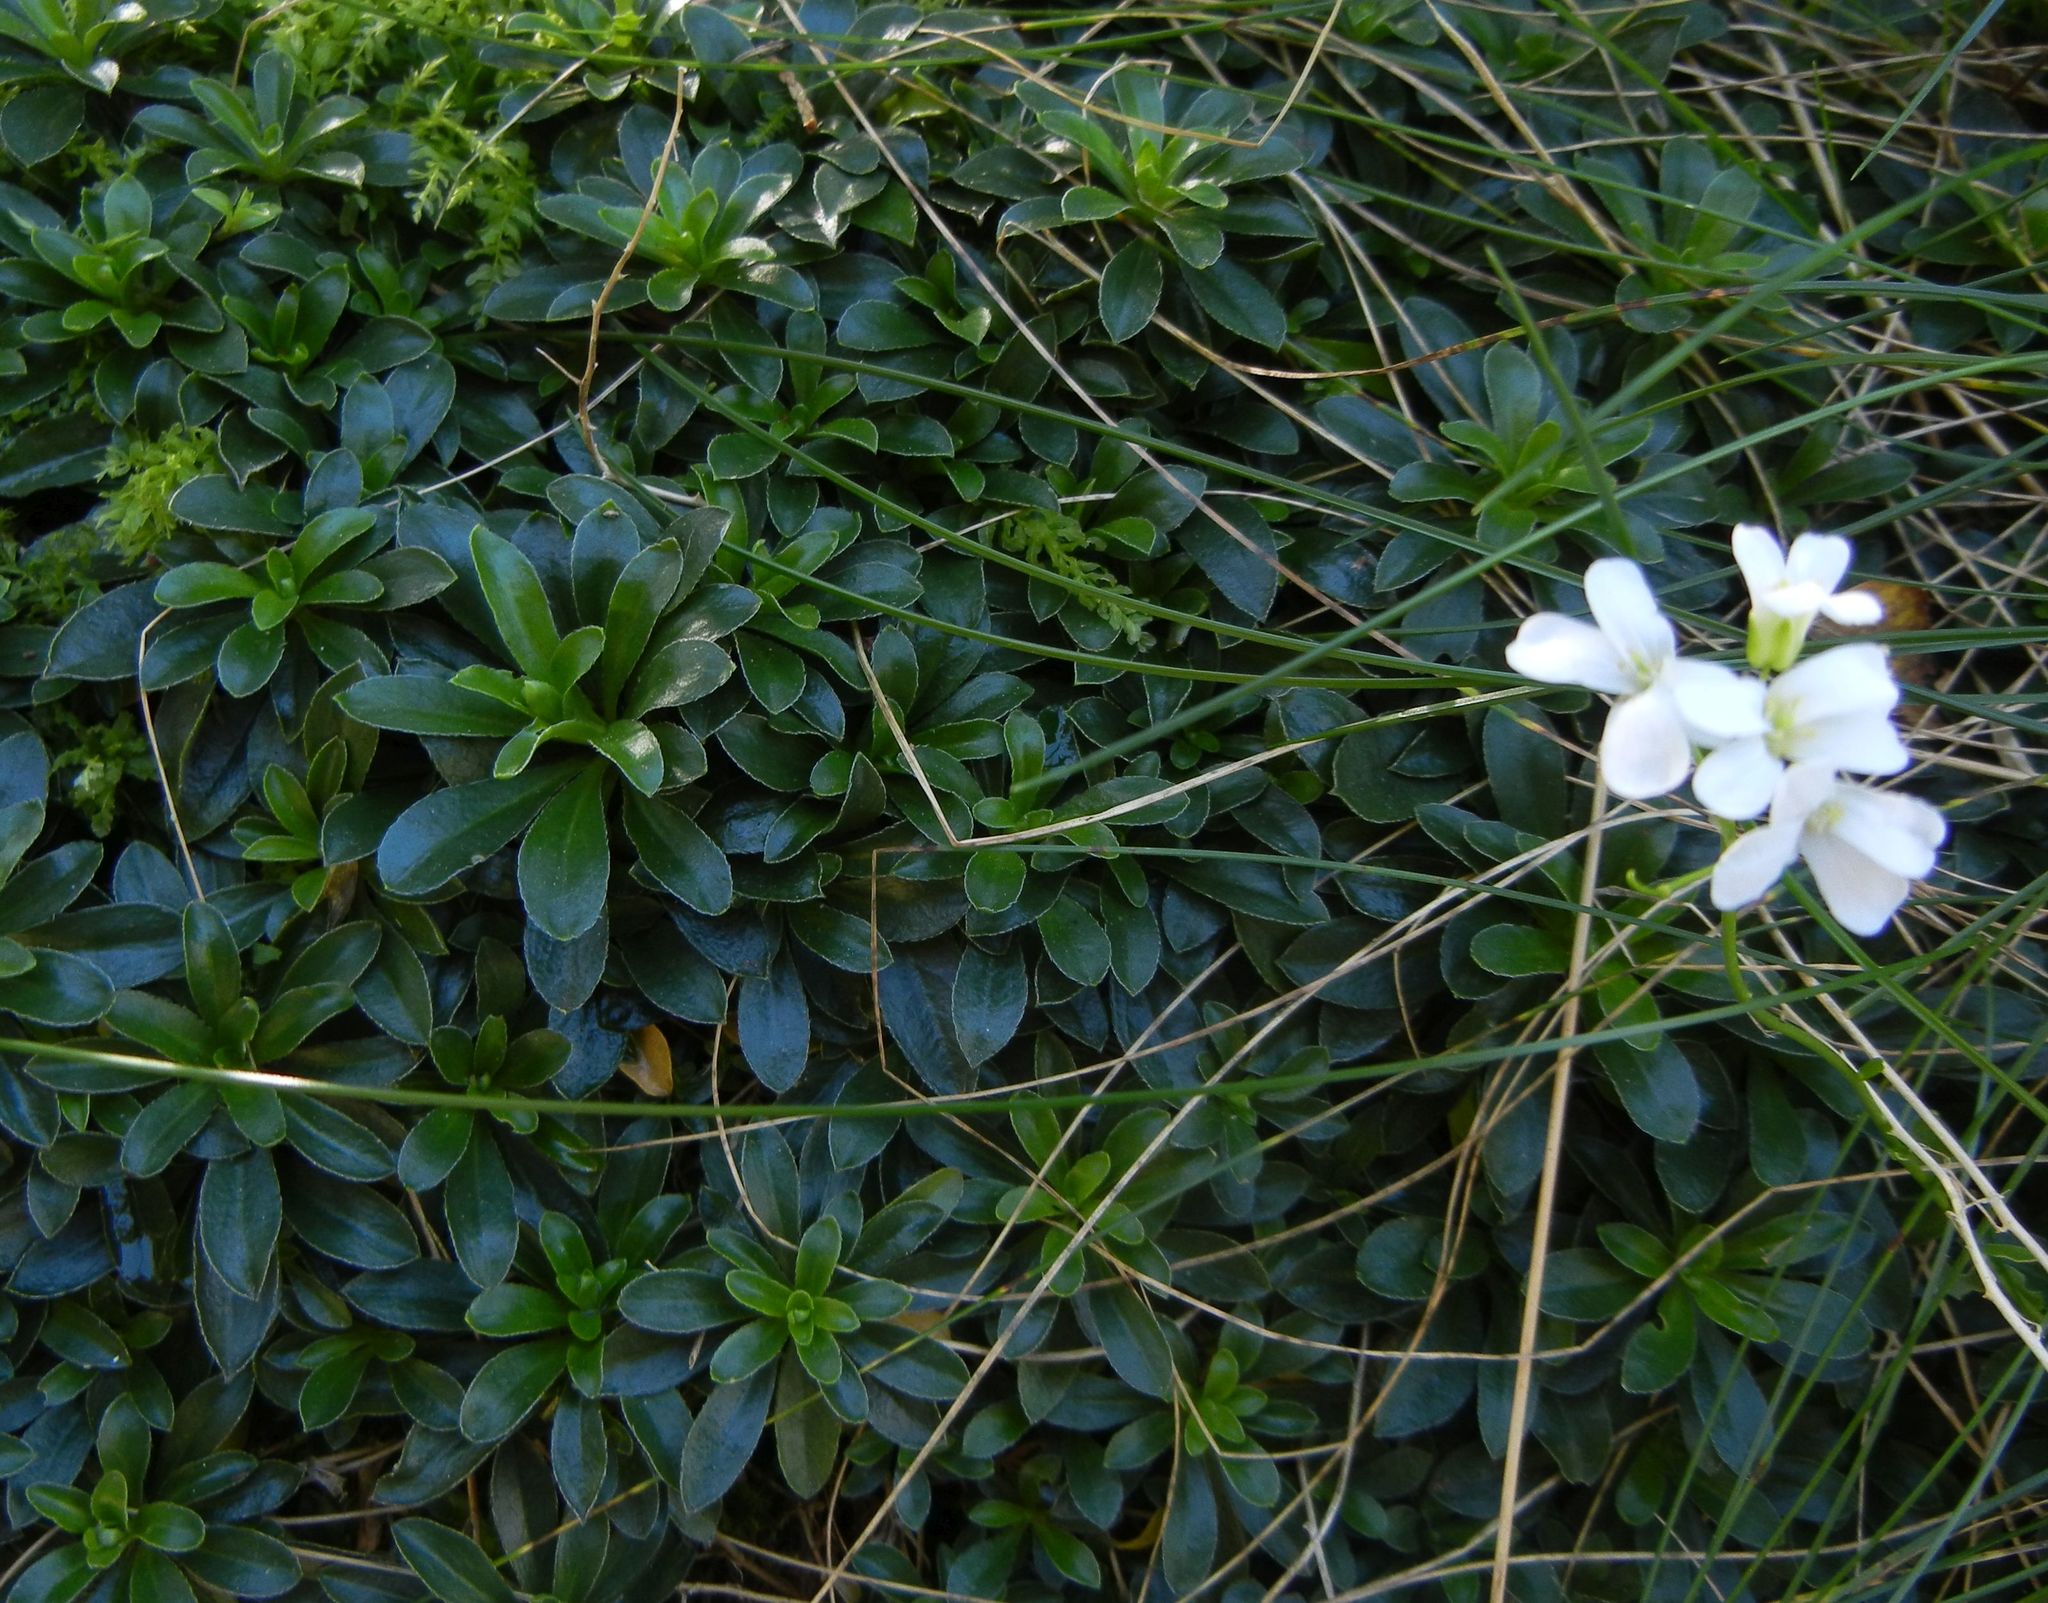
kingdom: Plantae
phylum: Tracheophyta
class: Magnoliopsida
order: Brassicales
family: Brassicaceae
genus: Arabis
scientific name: Arabis ferdinandi-coburgii
